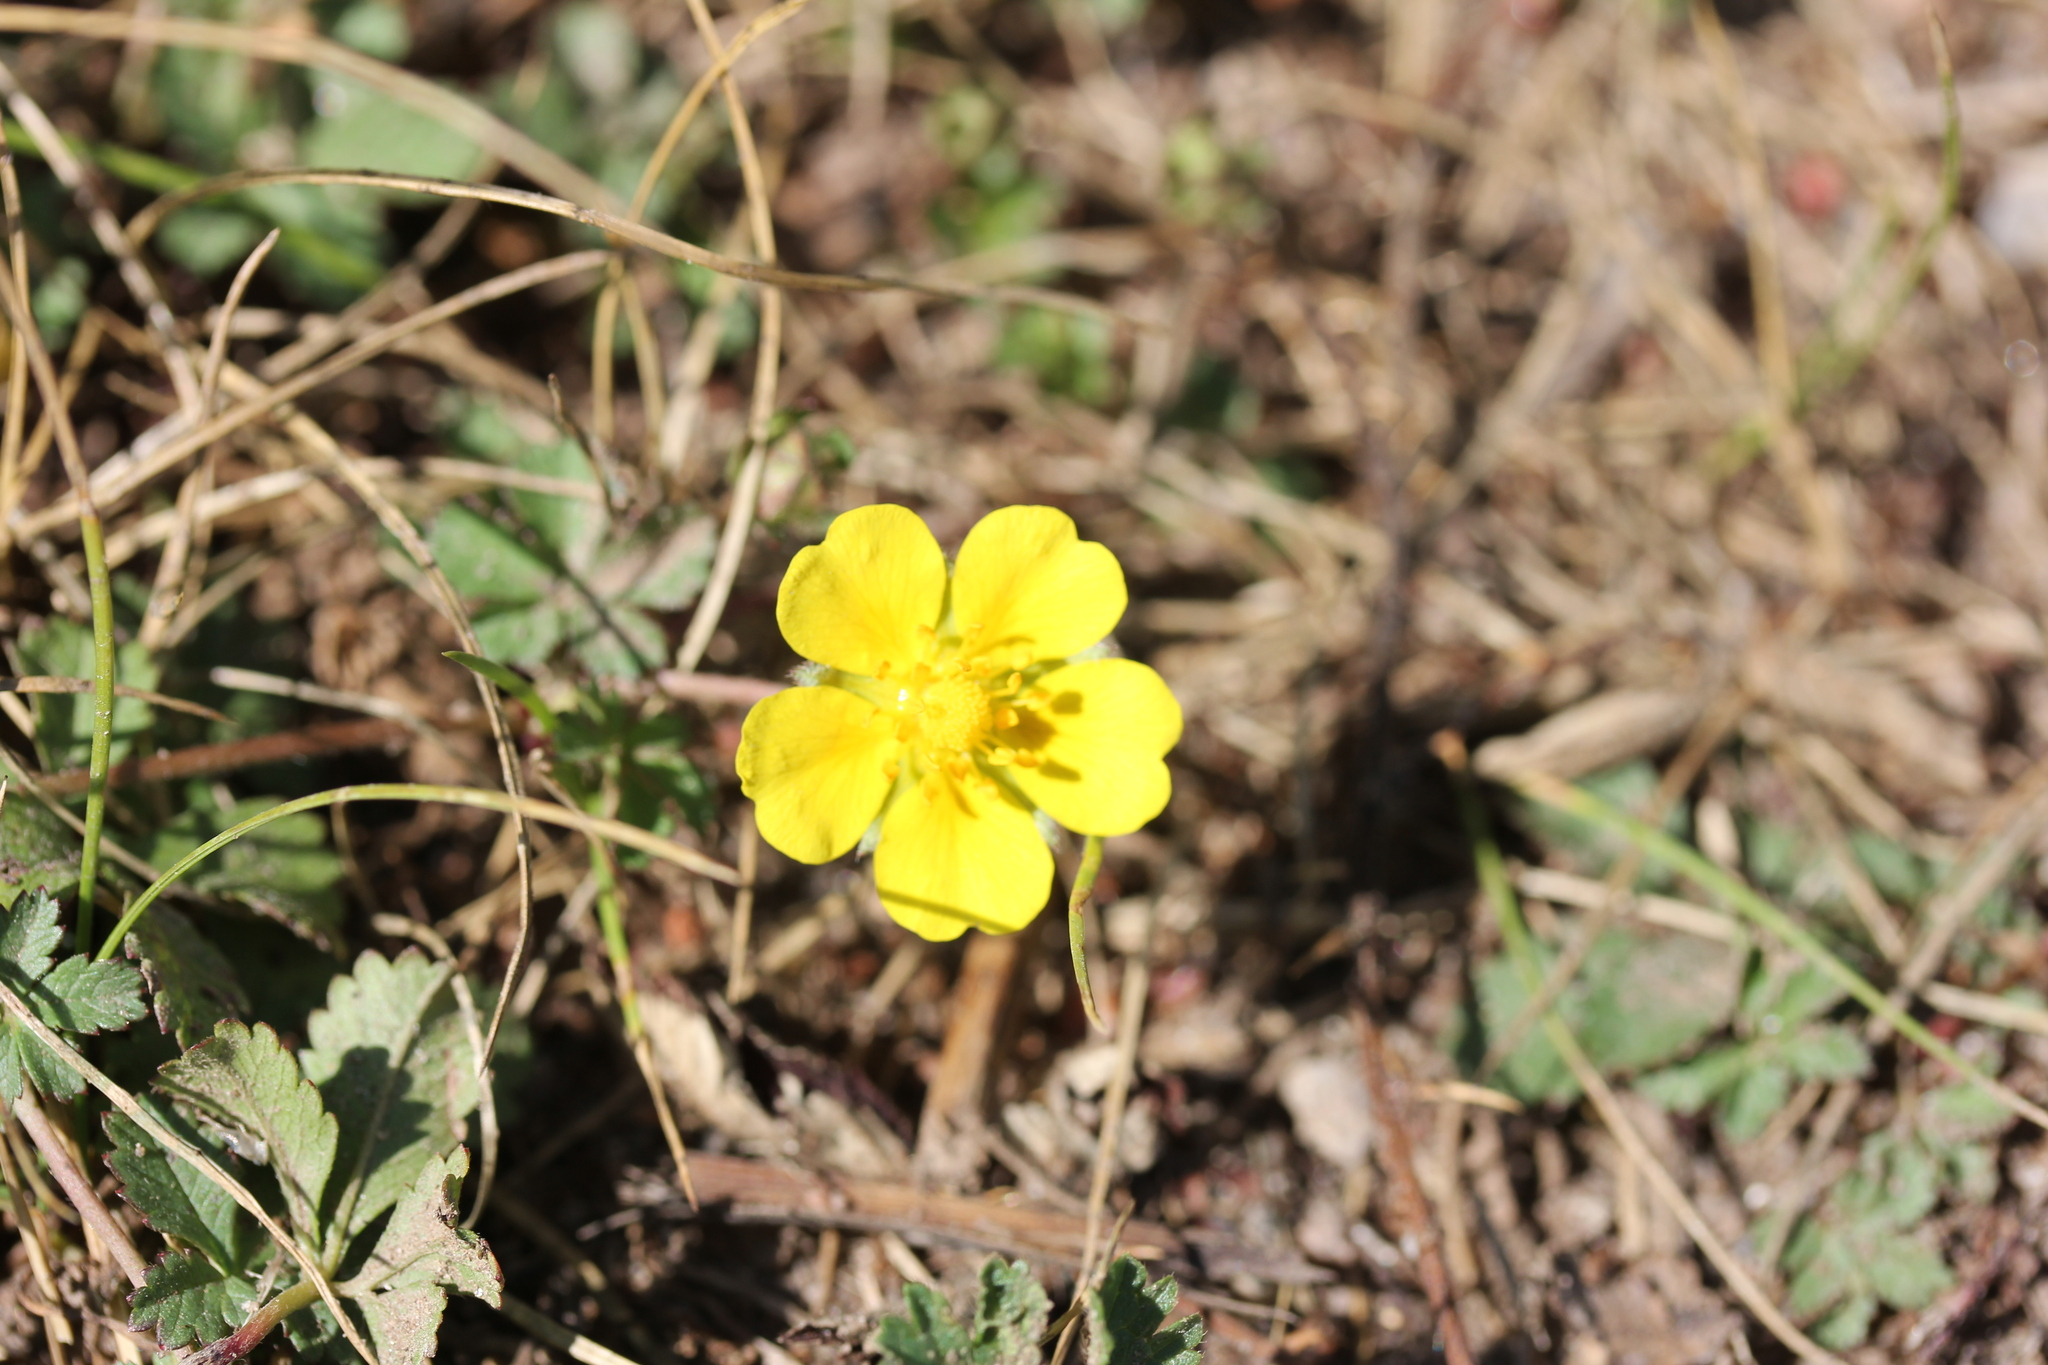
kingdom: Plantae
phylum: Tracheophyta
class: Magnoliopsida
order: Rosales
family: Rosaceae
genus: Potentilla
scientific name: Potentilla reptans
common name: Creeping cinquefoil
